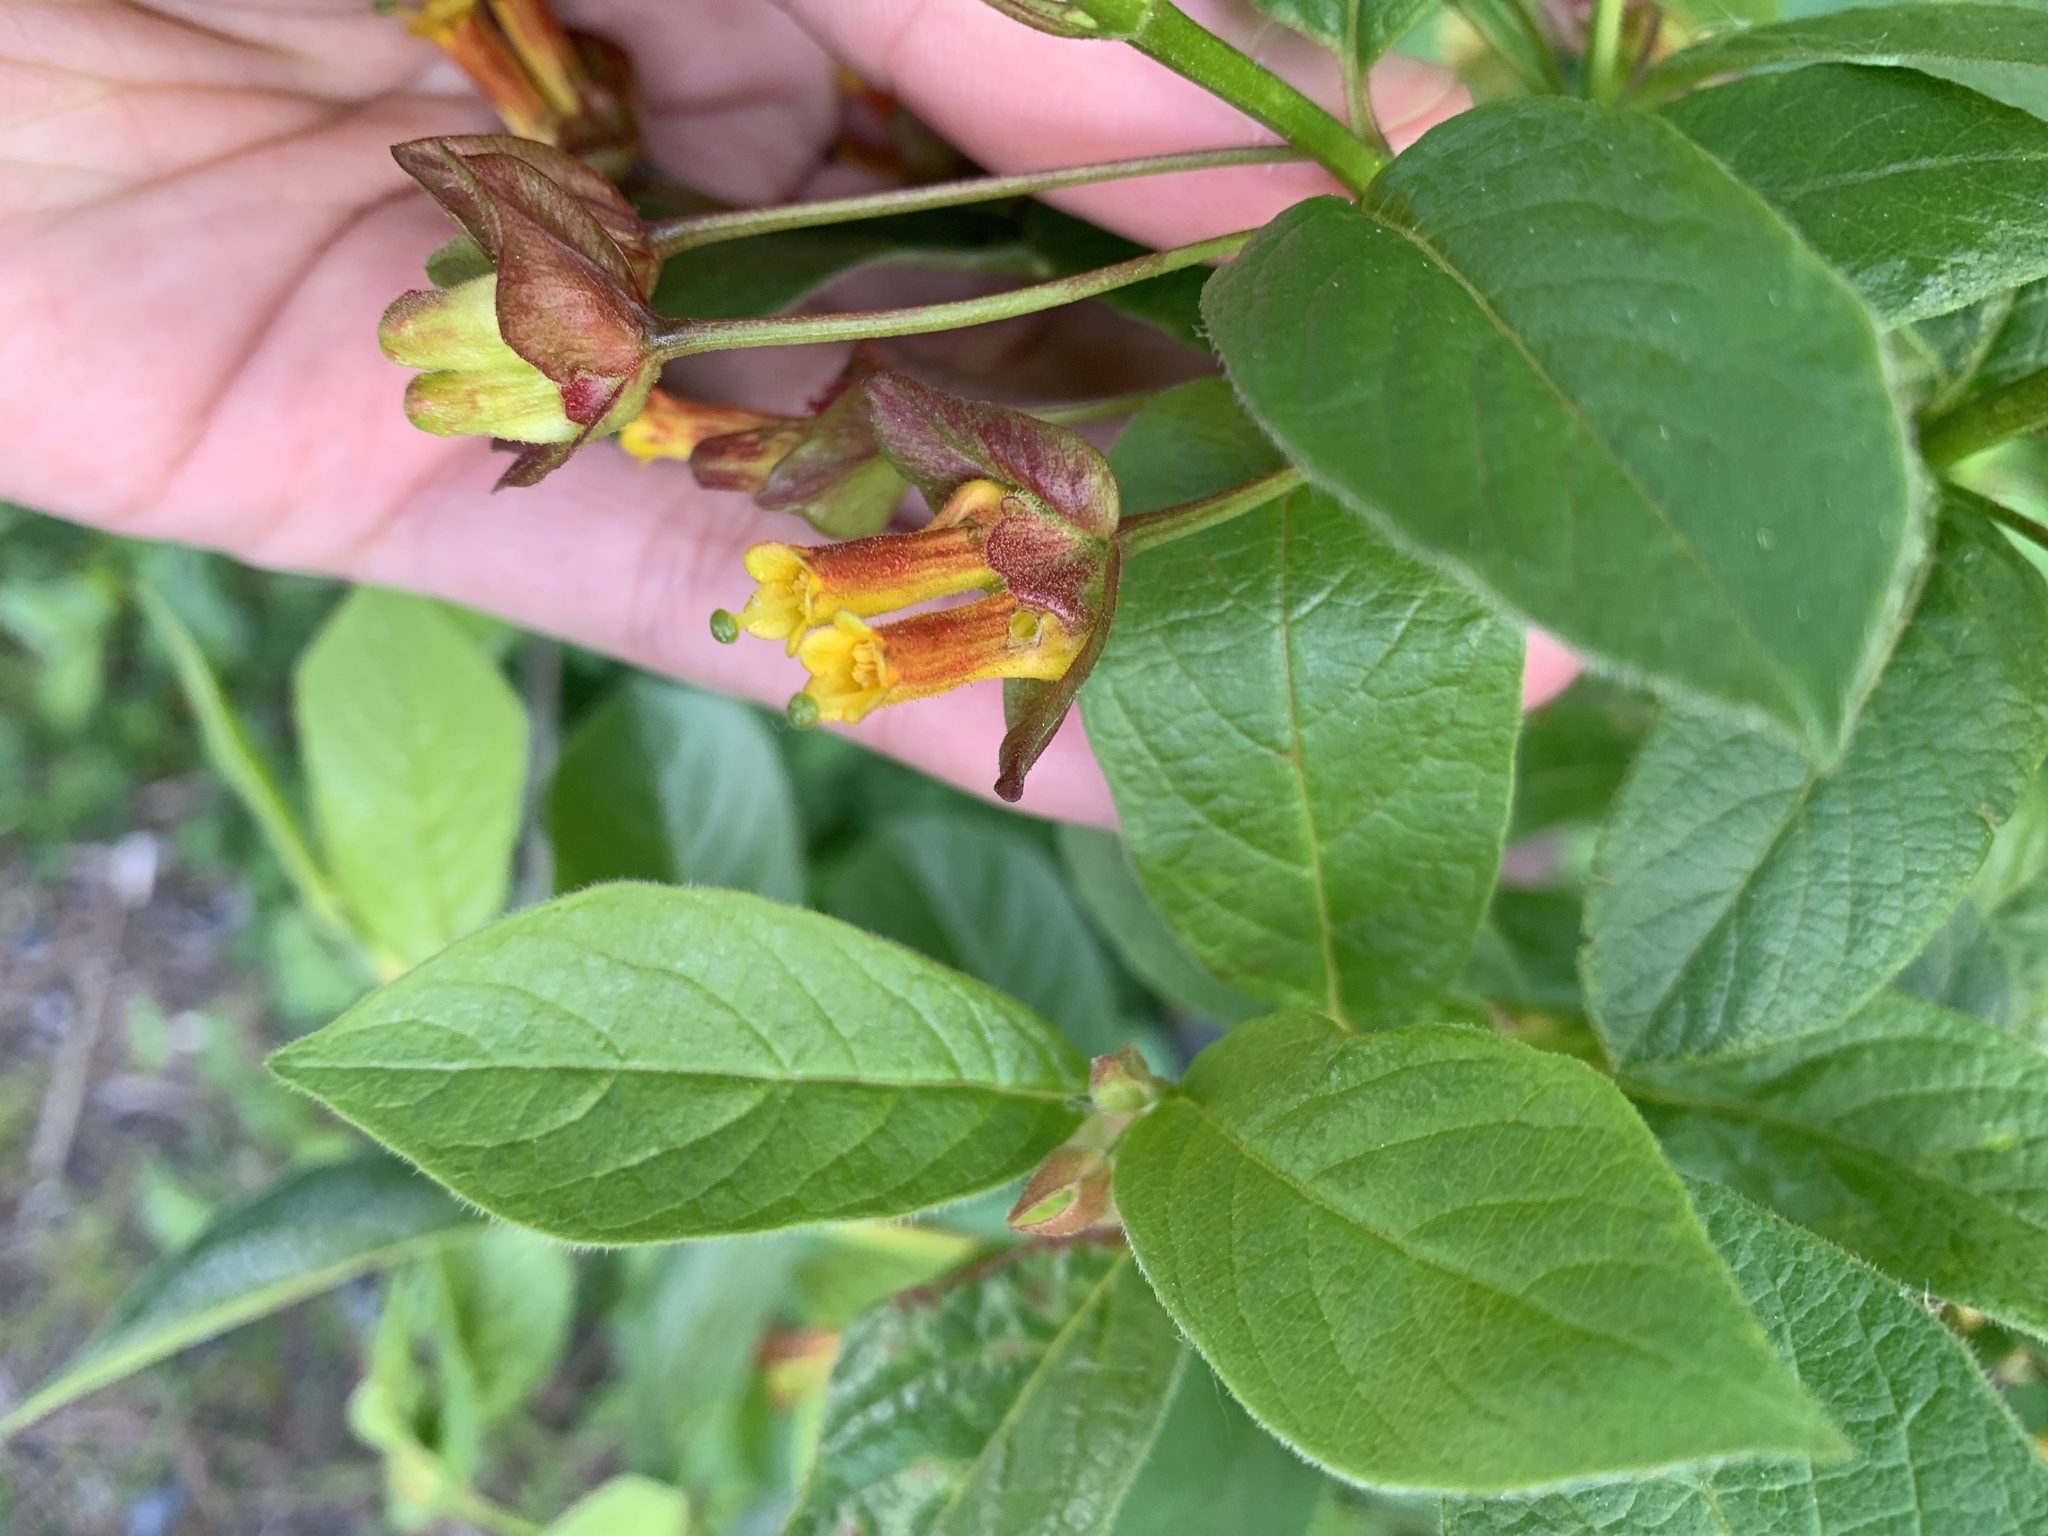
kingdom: Plantae
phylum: Tracheophyta
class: Magnoliopsida
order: Dipsacales
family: Caprifoliaceae
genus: Lonicera
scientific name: Lonicera involucrata
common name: Californian honeysuckle
